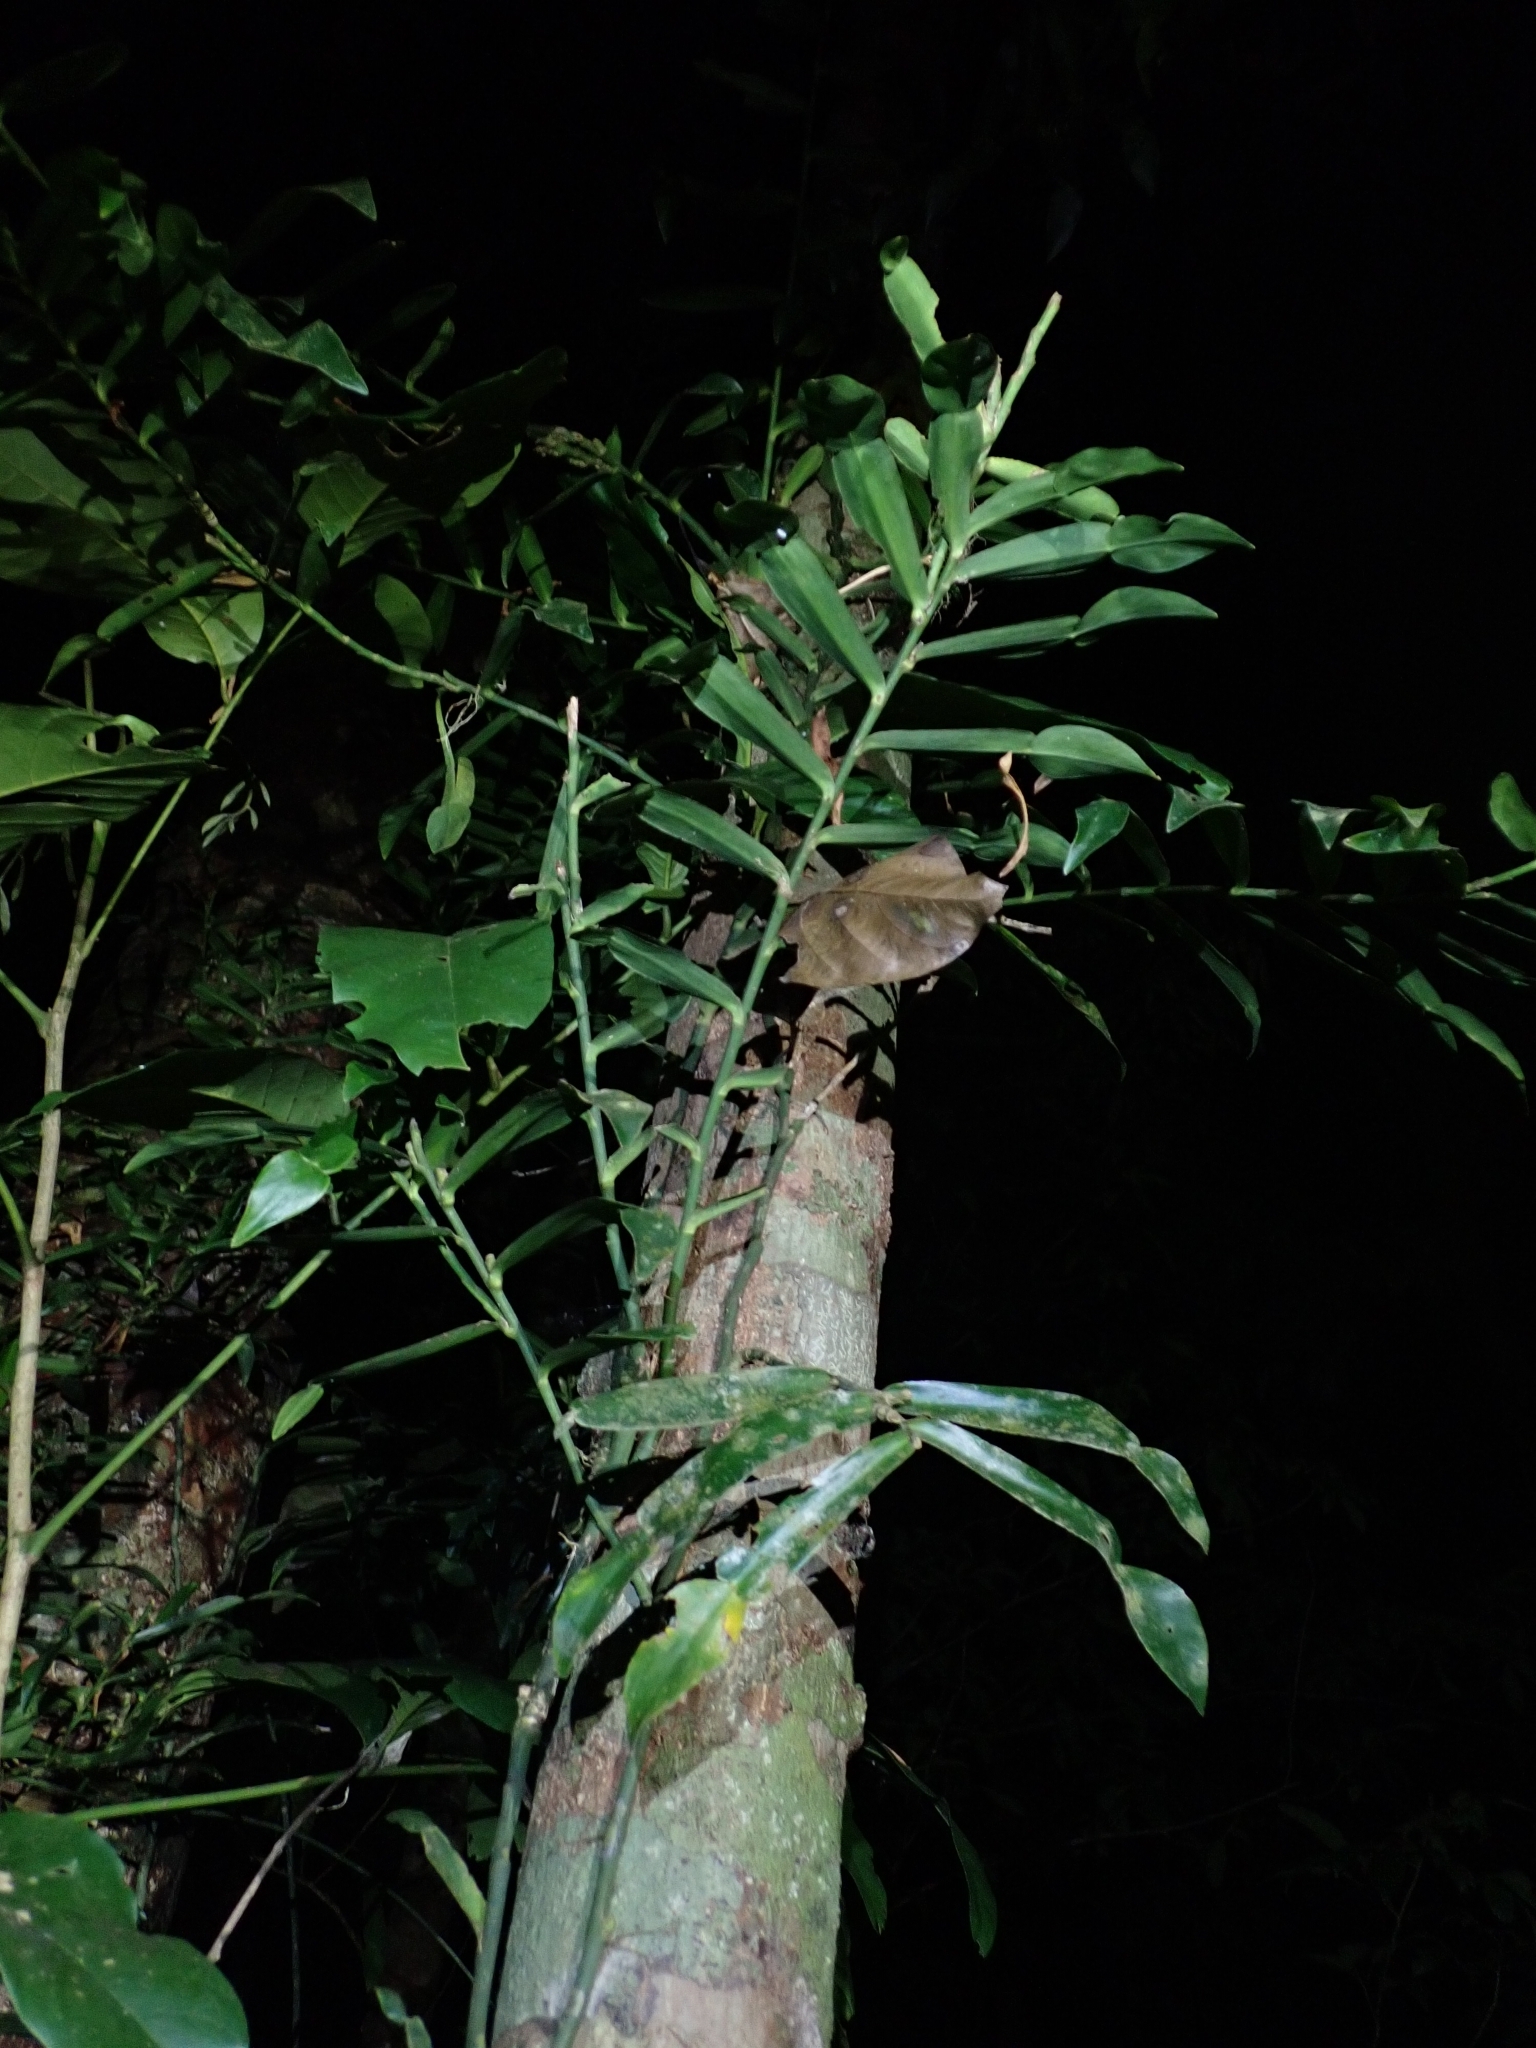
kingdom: Plantae
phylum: Tracheophyta
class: Liliopsida
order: Alismatales
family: Araceae
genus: Pothos
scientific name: Pothos longipes
